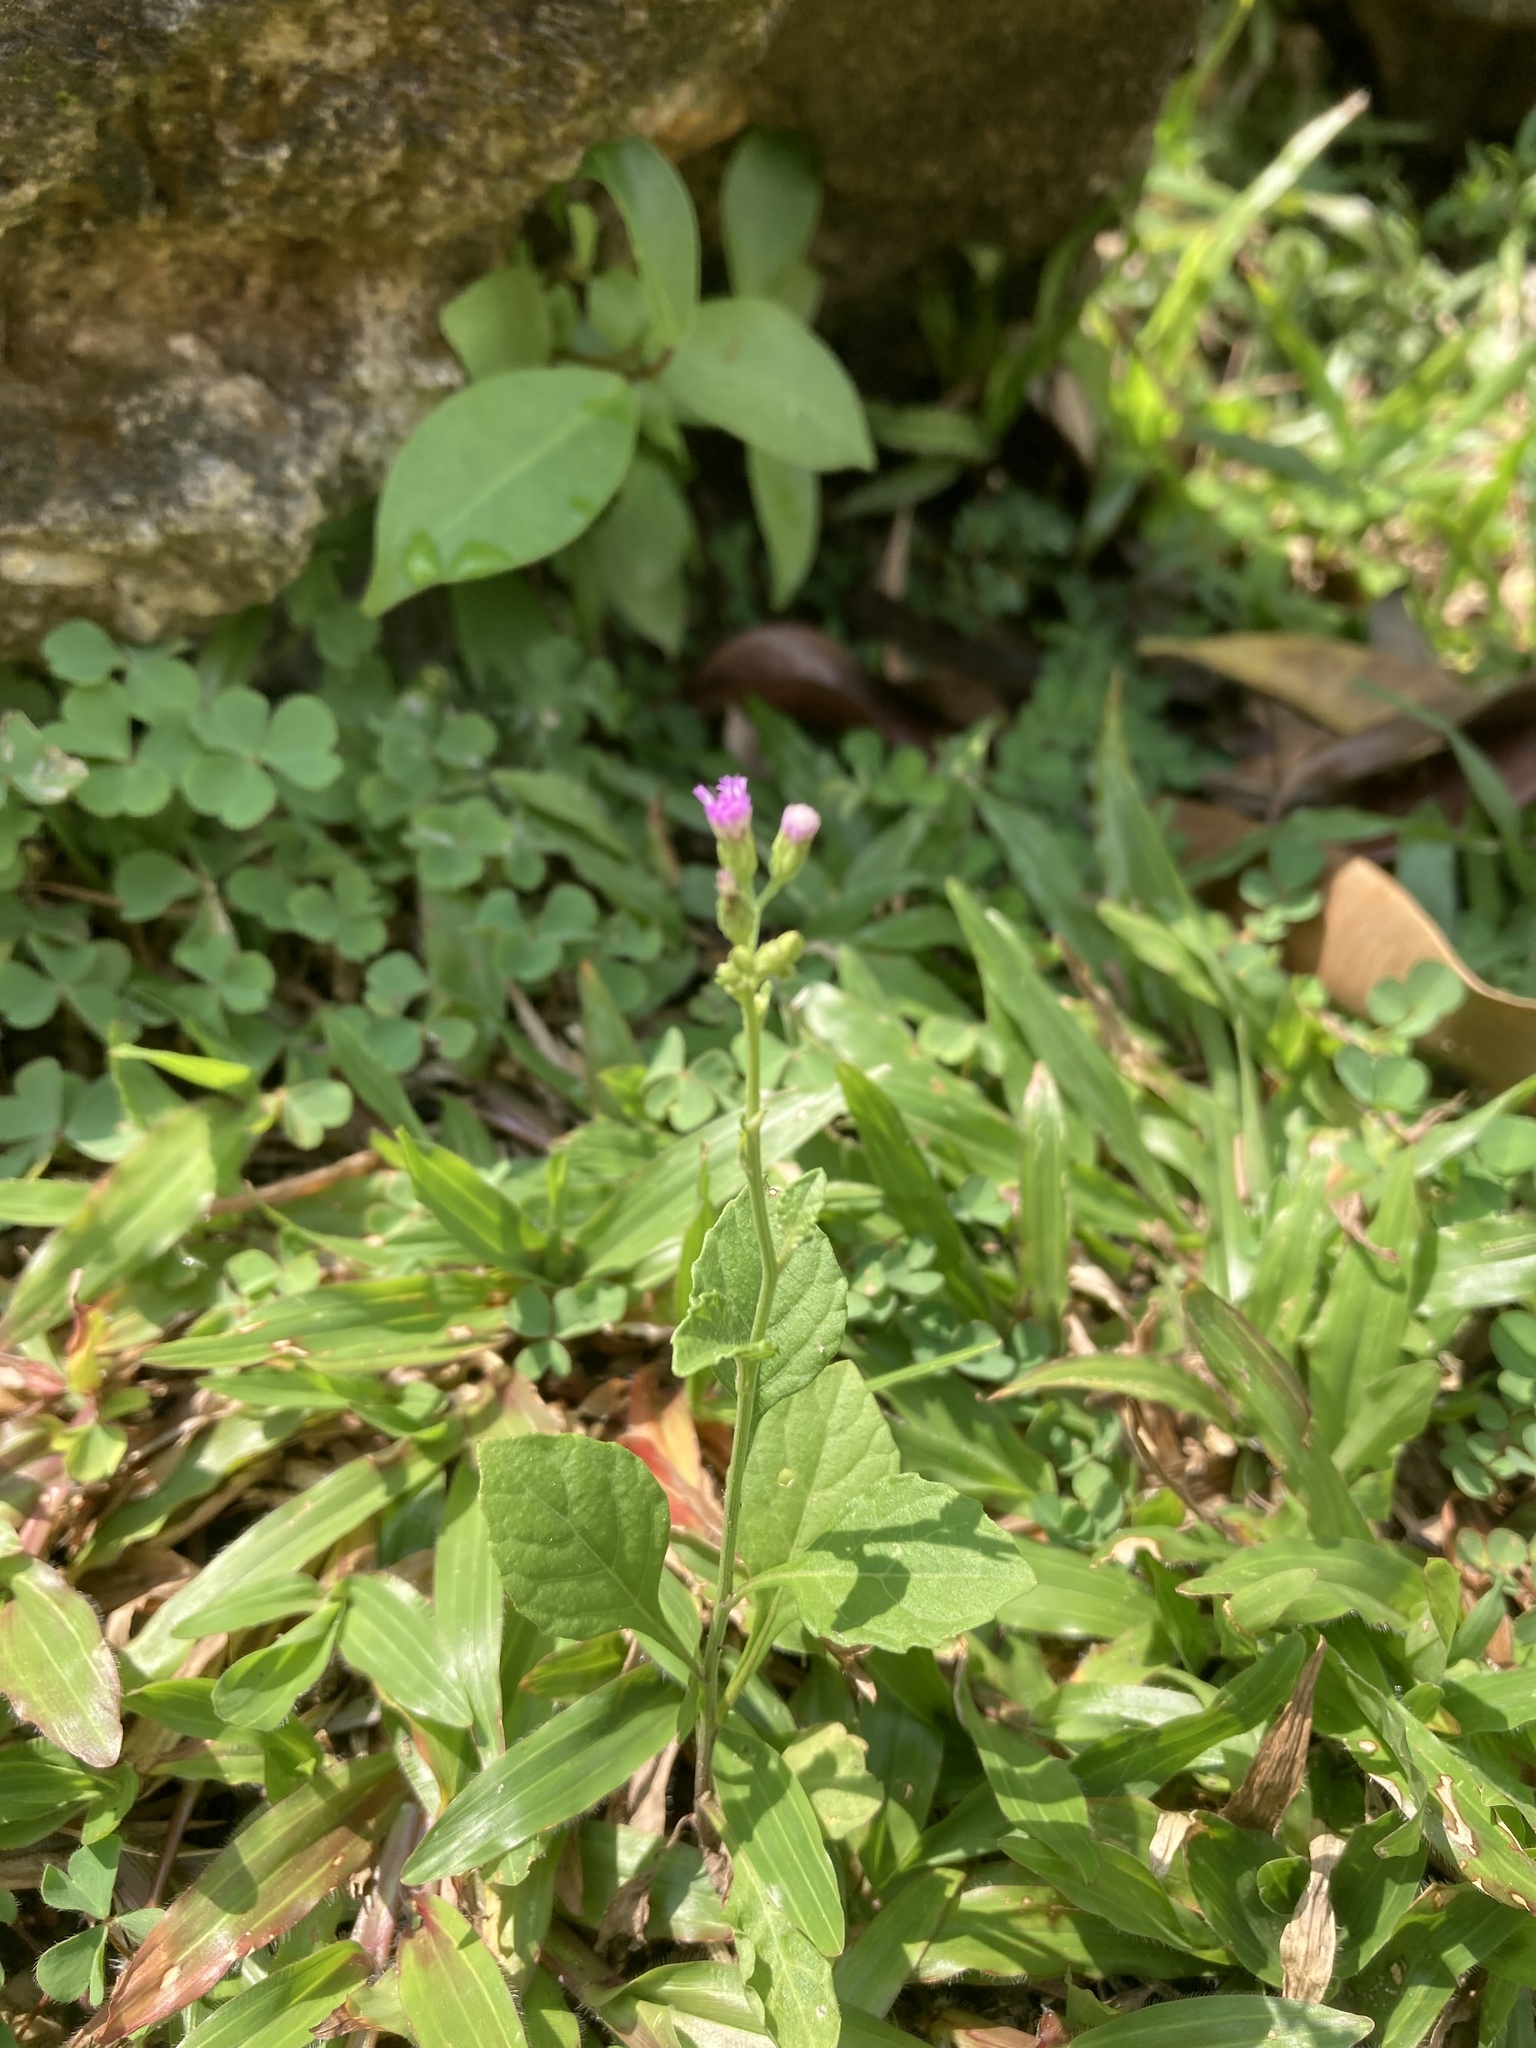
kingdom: Plantae
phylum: Tracheophyta
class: Magnoliopsida
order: Asterales
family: Asteraceae
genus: Cyanthillium
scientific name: Cyanthillium cinereum
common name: Little ironweed
